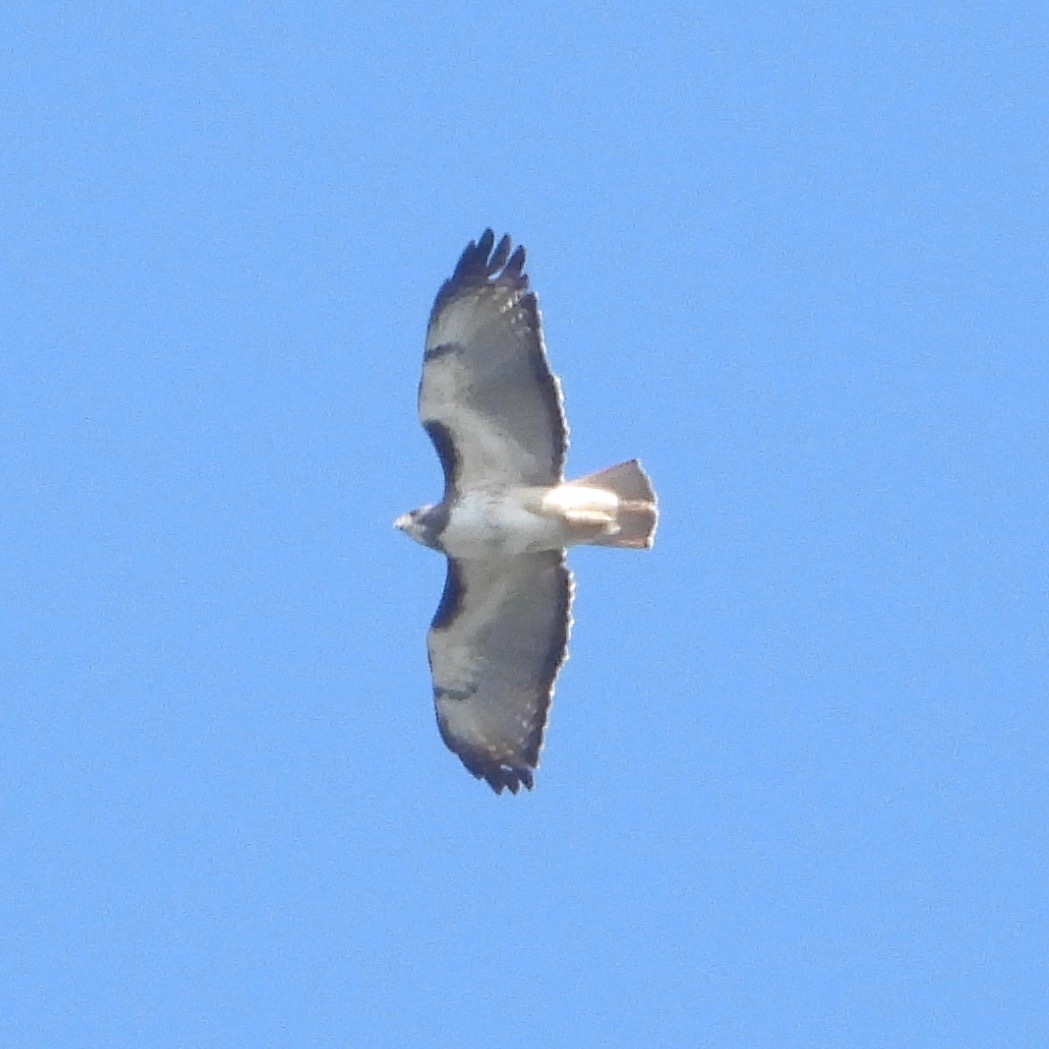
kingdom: Animalia
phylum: Chordata
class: Aves
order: Accipitriformes
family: Accipitridae
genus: Buteo
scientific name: Buteo jamaicensis
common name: Red-tailed hawk
